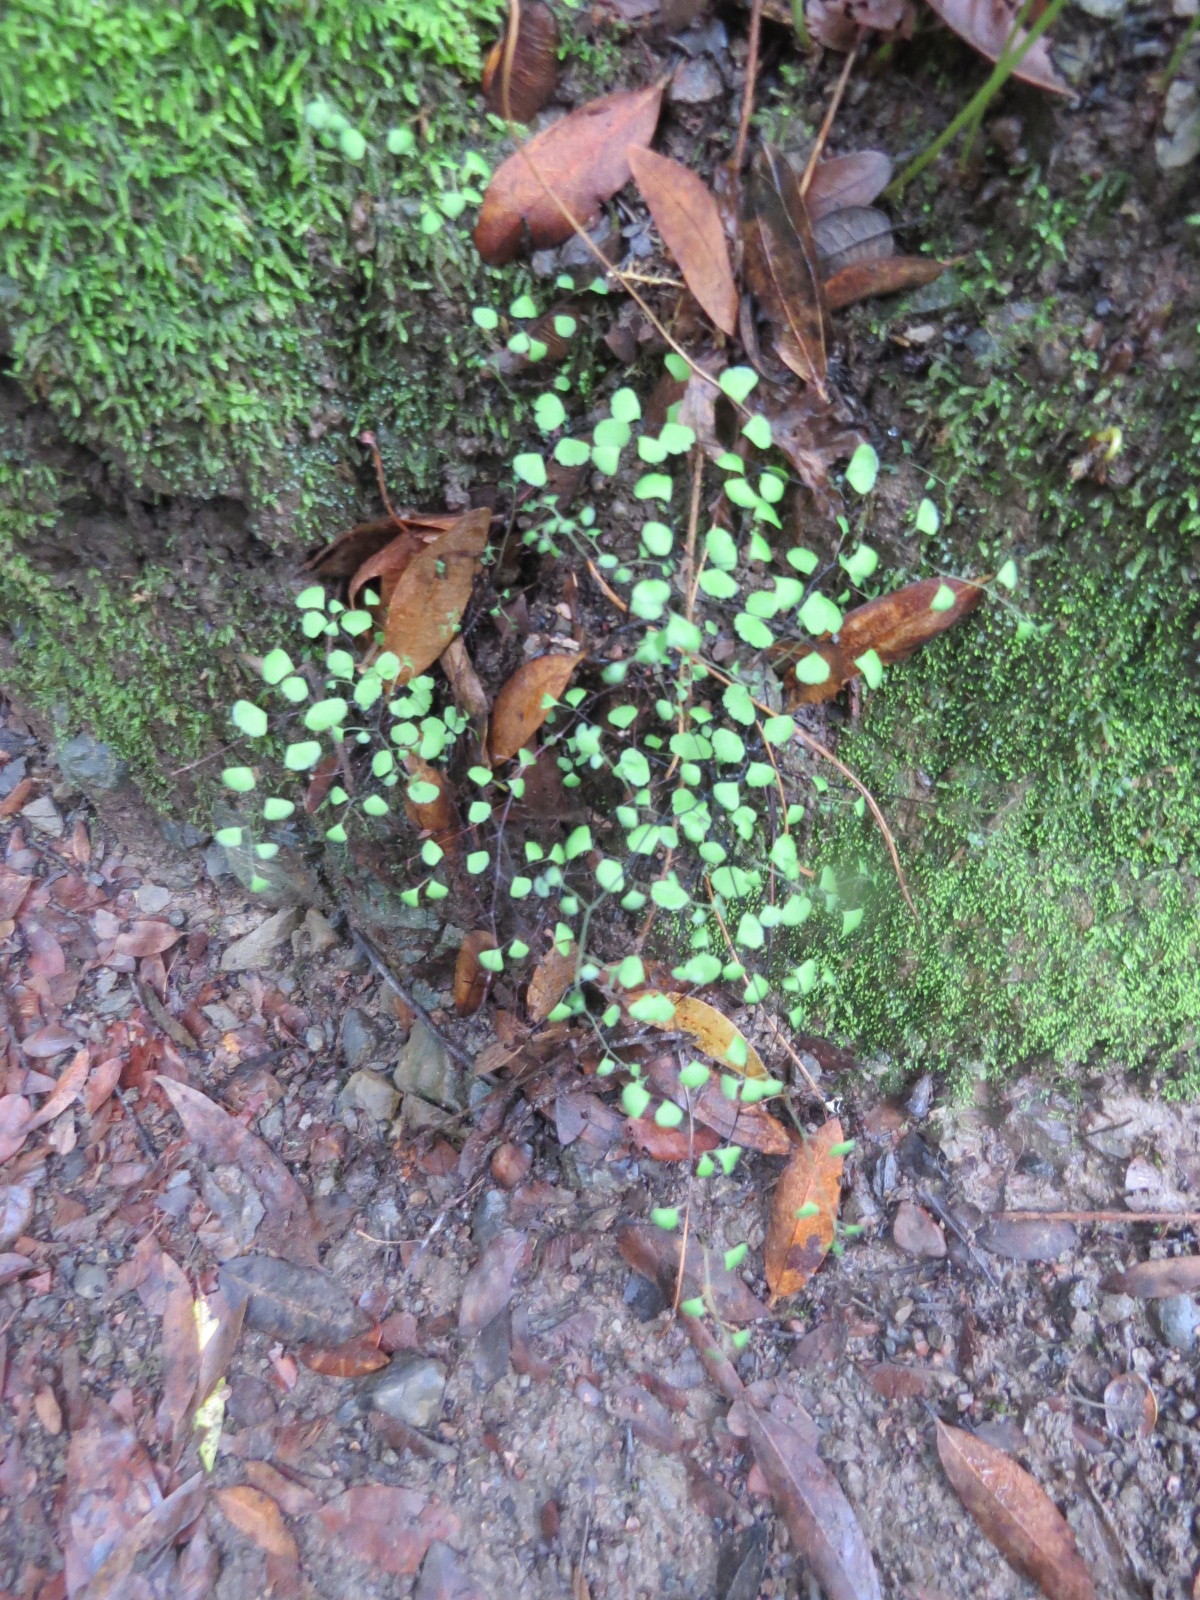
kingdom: Plantae
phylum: Tracheophyta
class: Polypodiopsida
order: Polypodiales
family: Pteridaceae
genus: Adiantum
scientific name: Adiantum jordanii
